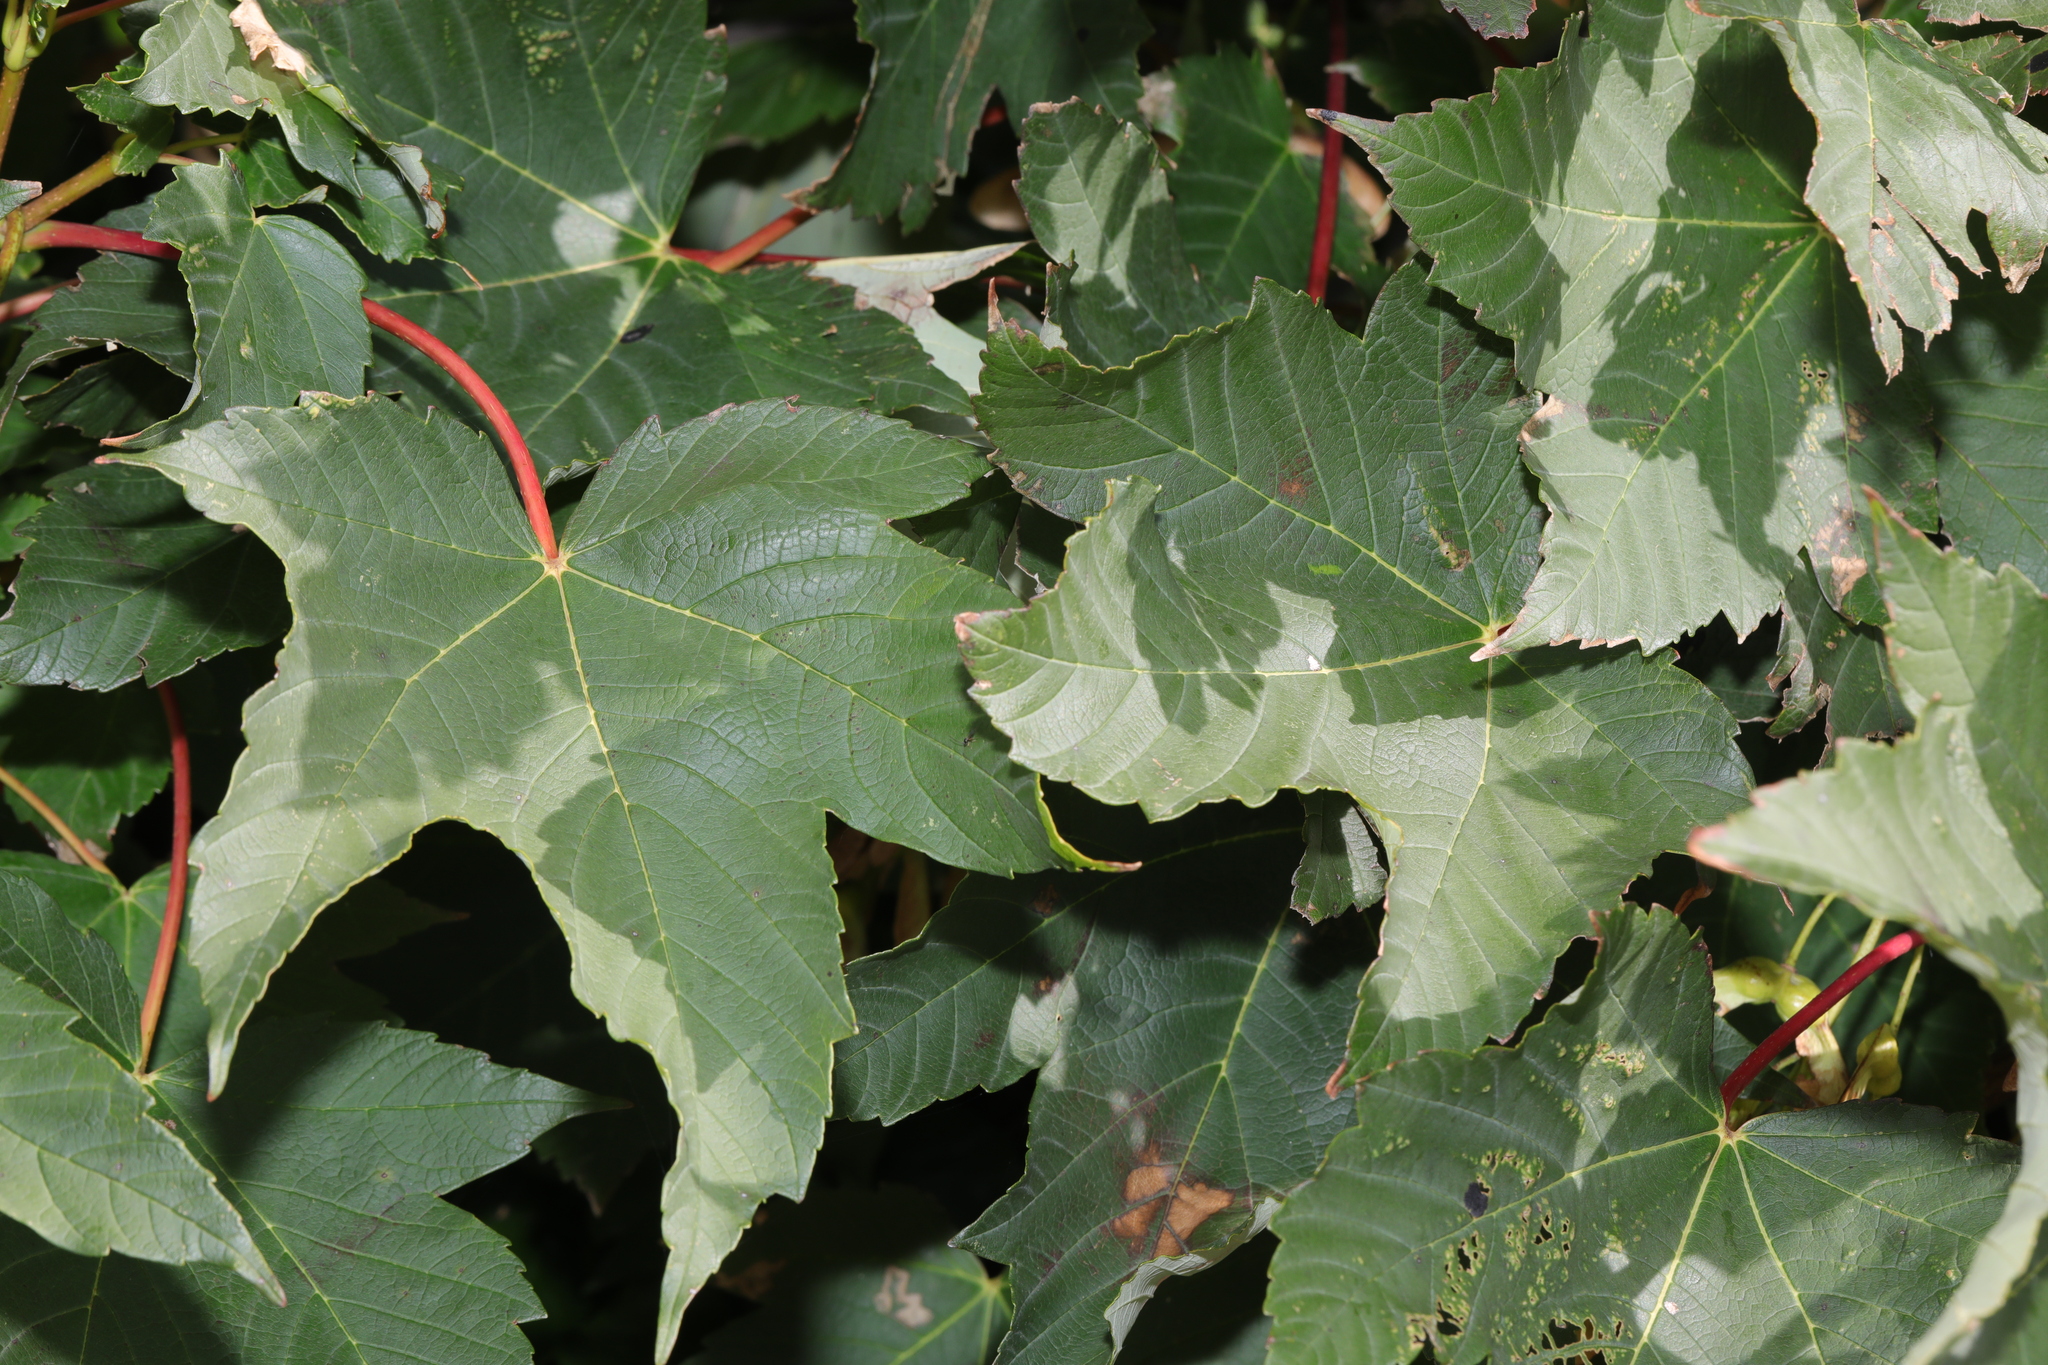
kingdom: Plantae
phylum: Tracheophyta
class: Magnoliopsida
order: Sapindales
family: Sapindaceae
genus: Acer
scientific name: Acer pseudoplatanus
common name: Sycamore
